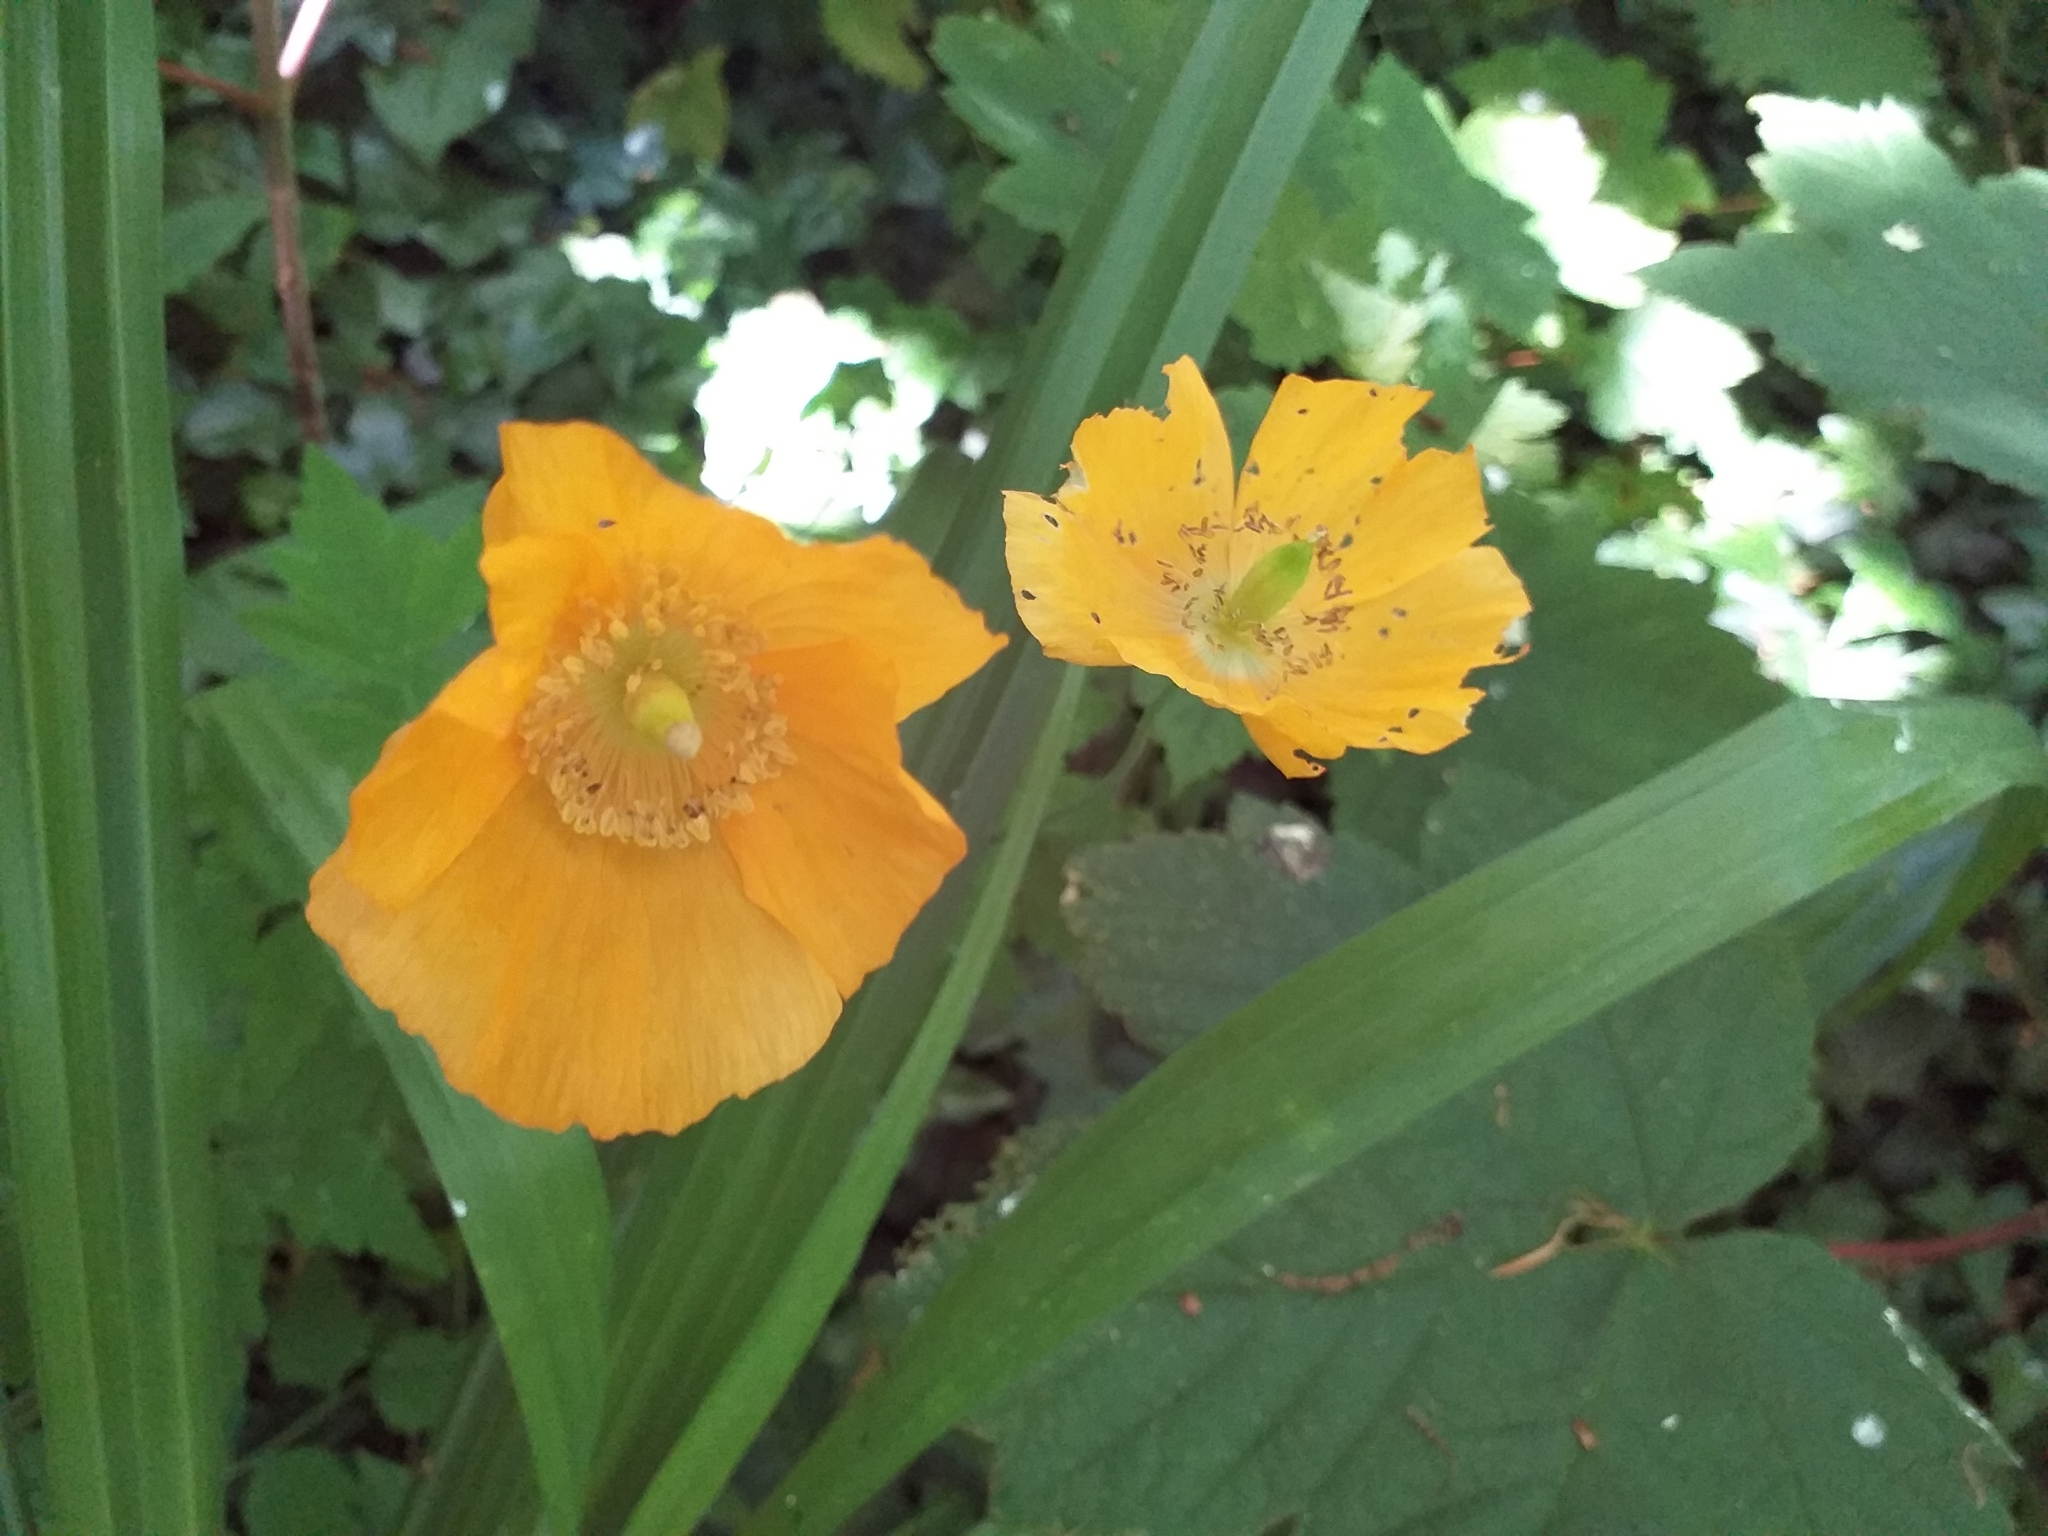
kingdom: Plantae
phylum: Tracheophyta
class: Magnoliopsida
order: Ranunculales
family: Papaveraceae
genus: Papaver
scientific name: Papaver cambricum
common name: Poppy
